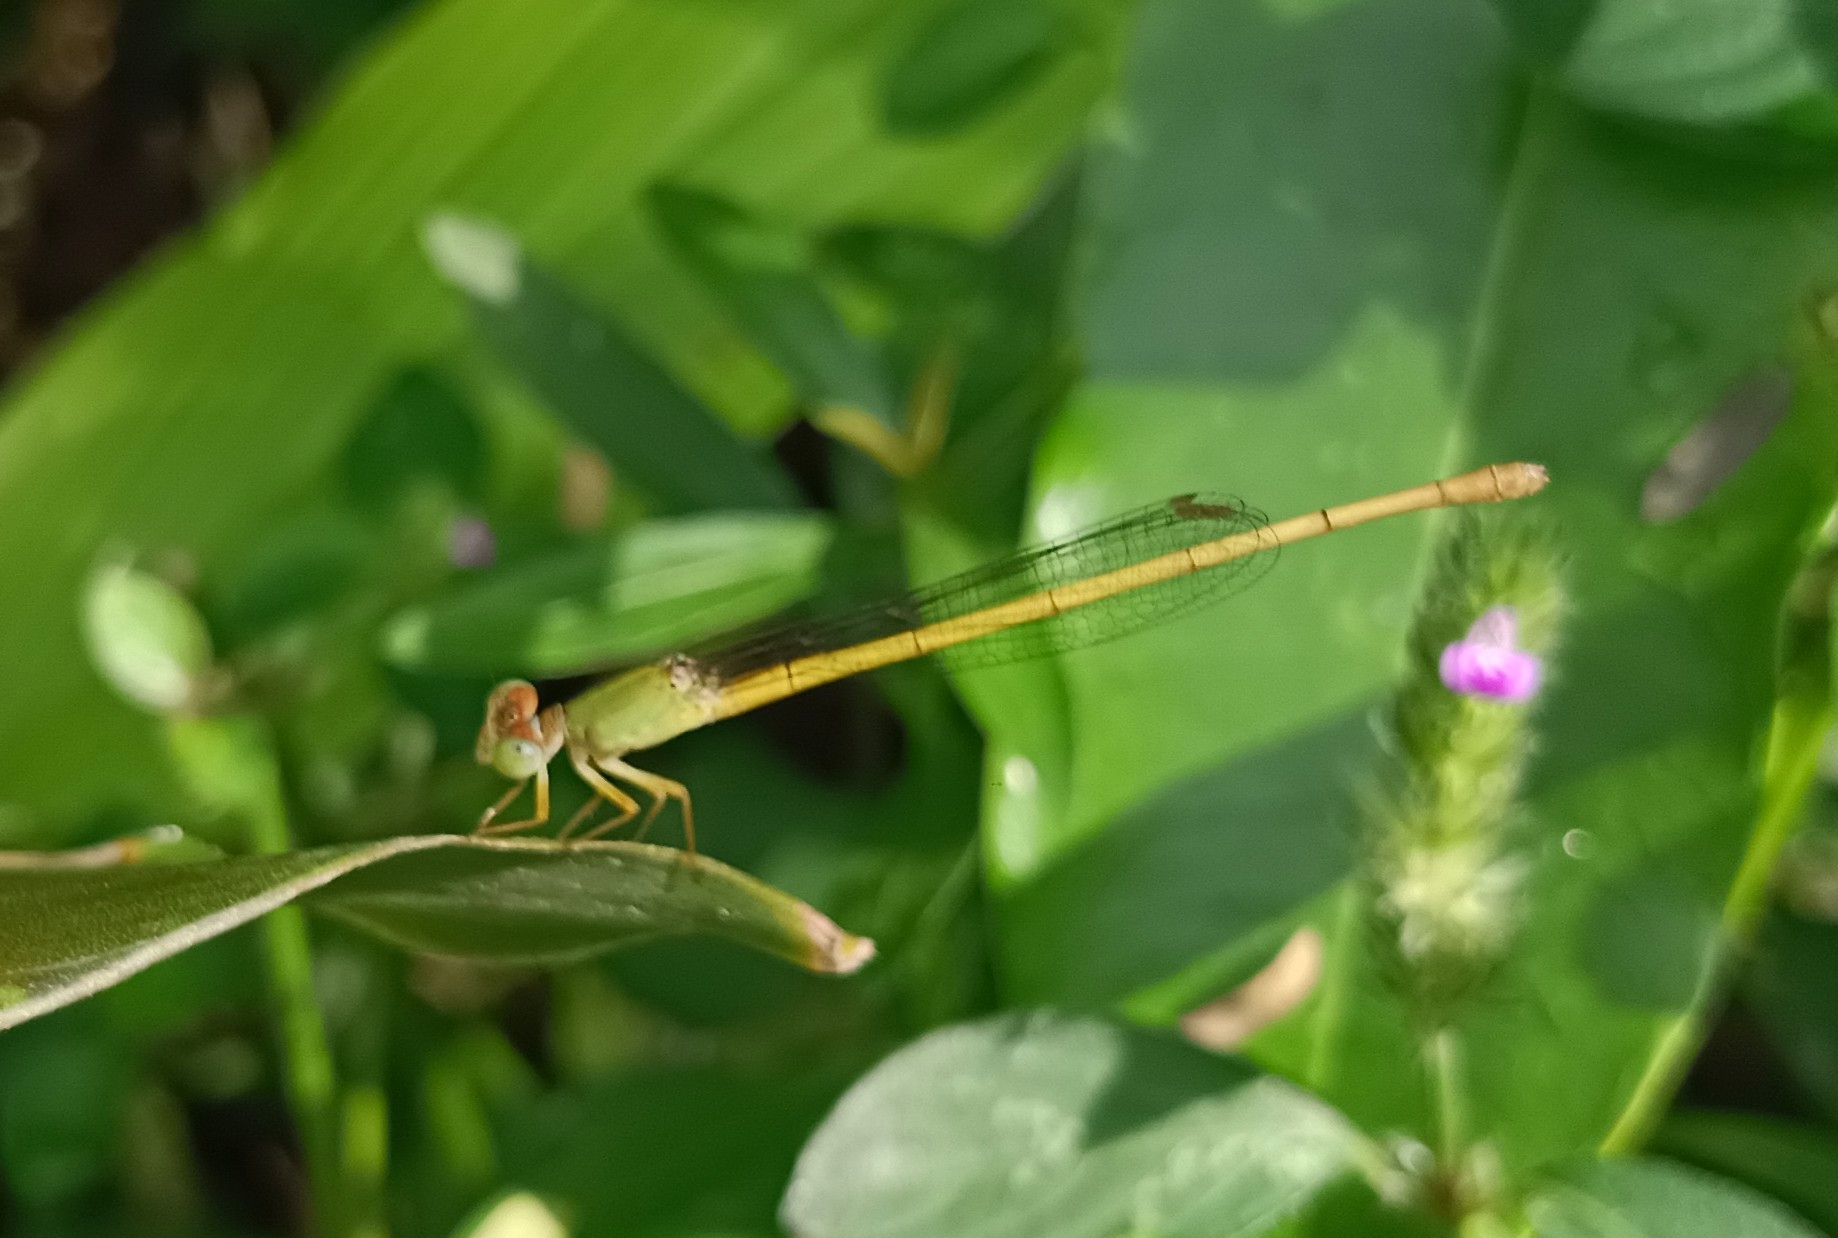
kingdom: Animalia
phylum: Arthropoda
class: Insecta
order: Odonata
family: Coenagrionidae
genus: Ceriagrion
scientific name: Ceriagrion coromandelianum
